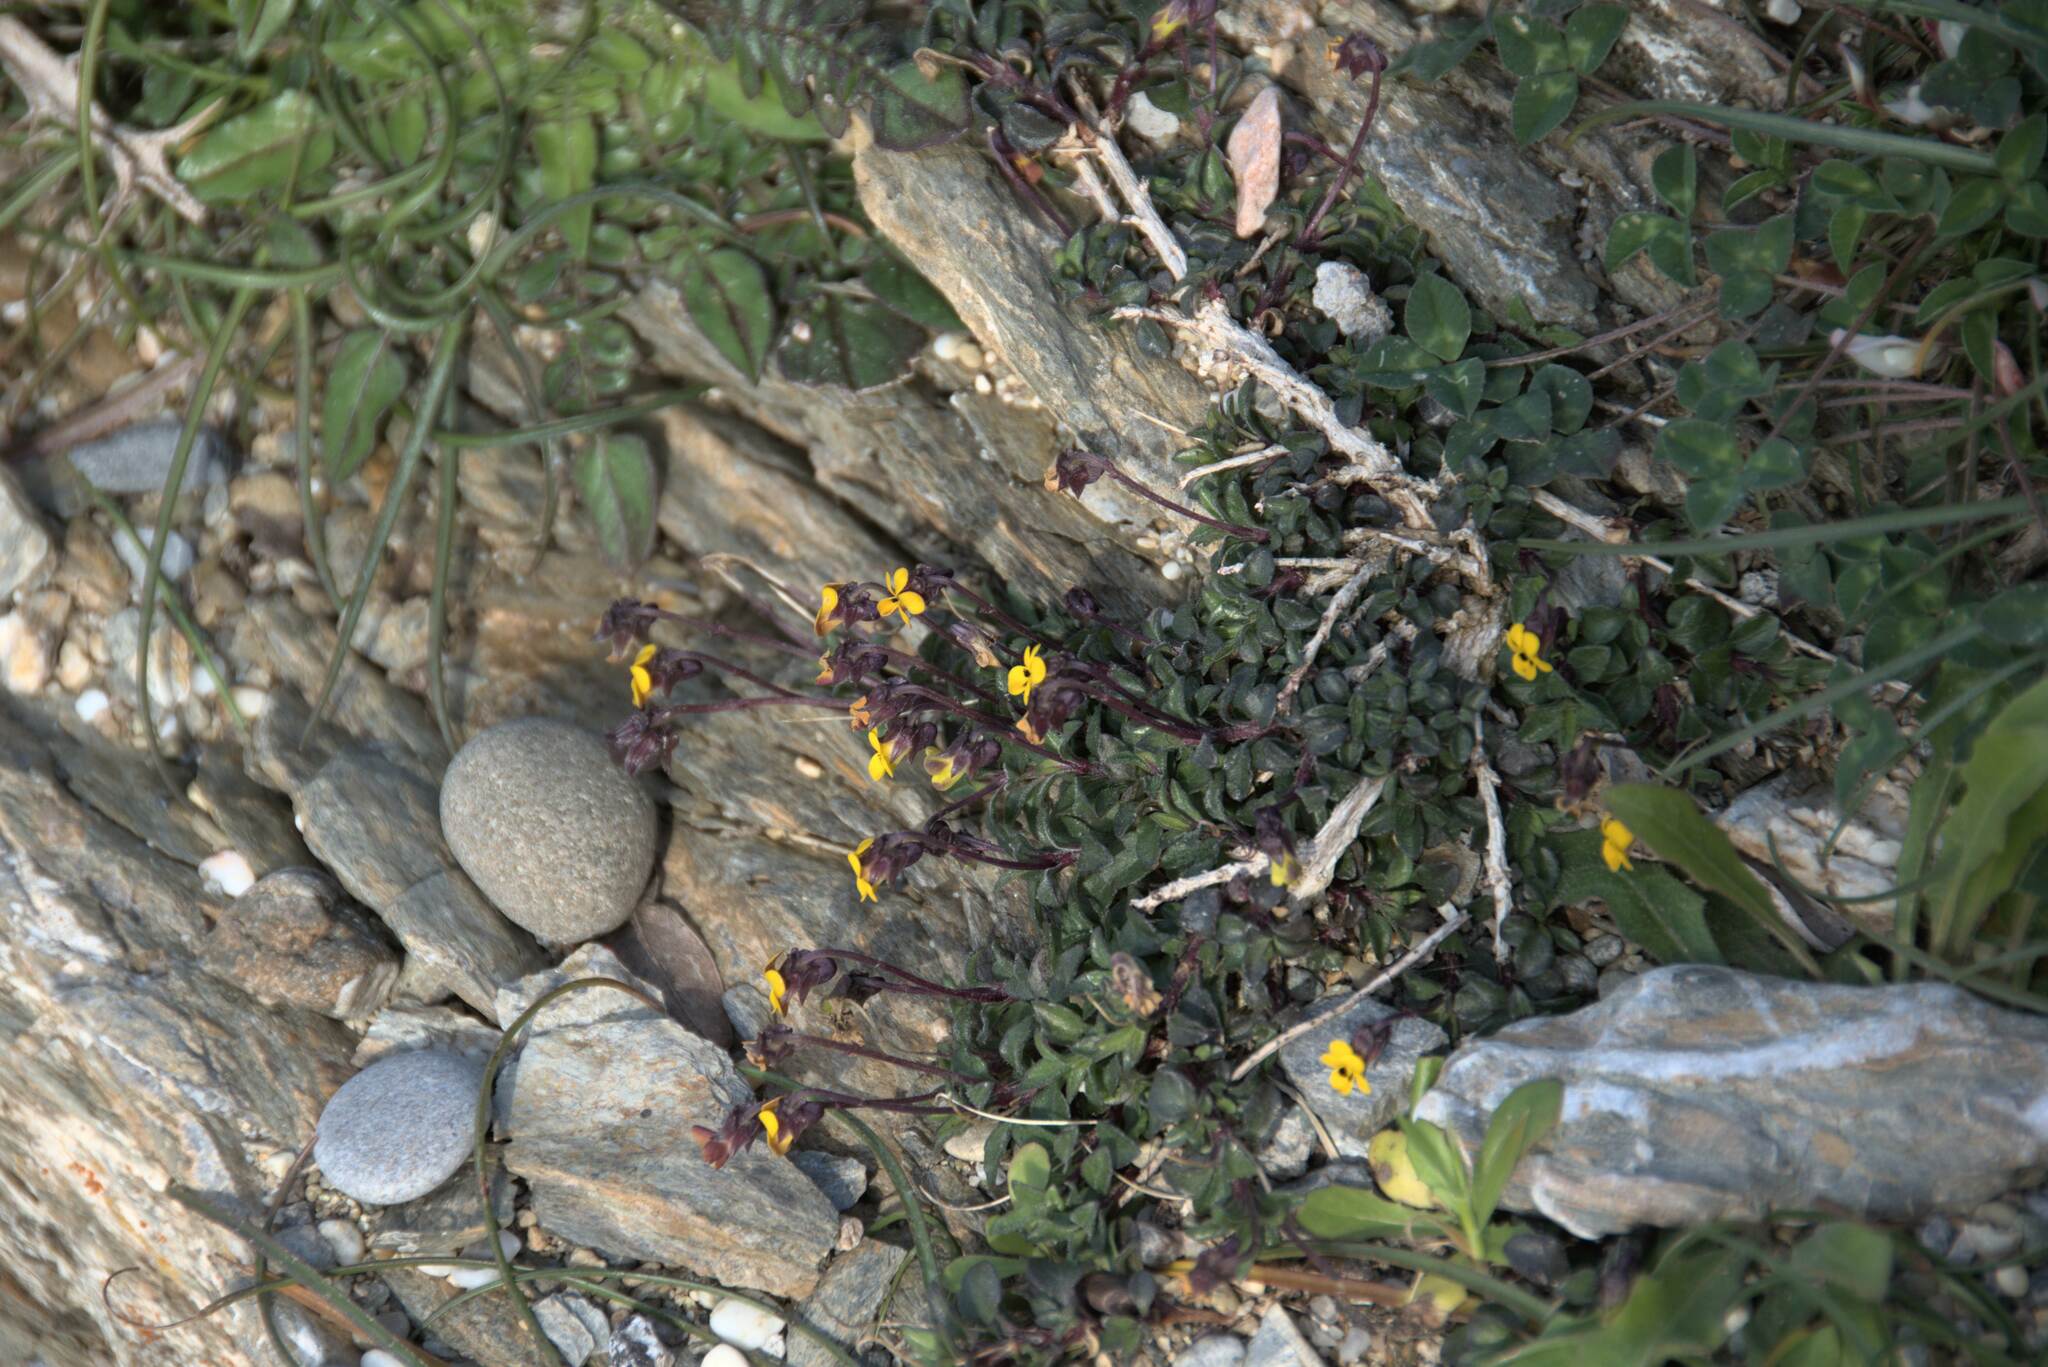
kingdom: Plantae
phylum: Tracheophyta
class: Magnoliopsida
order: Malpighiales
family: Violaceae
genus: Viola
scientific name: Viola scorpiuroides
